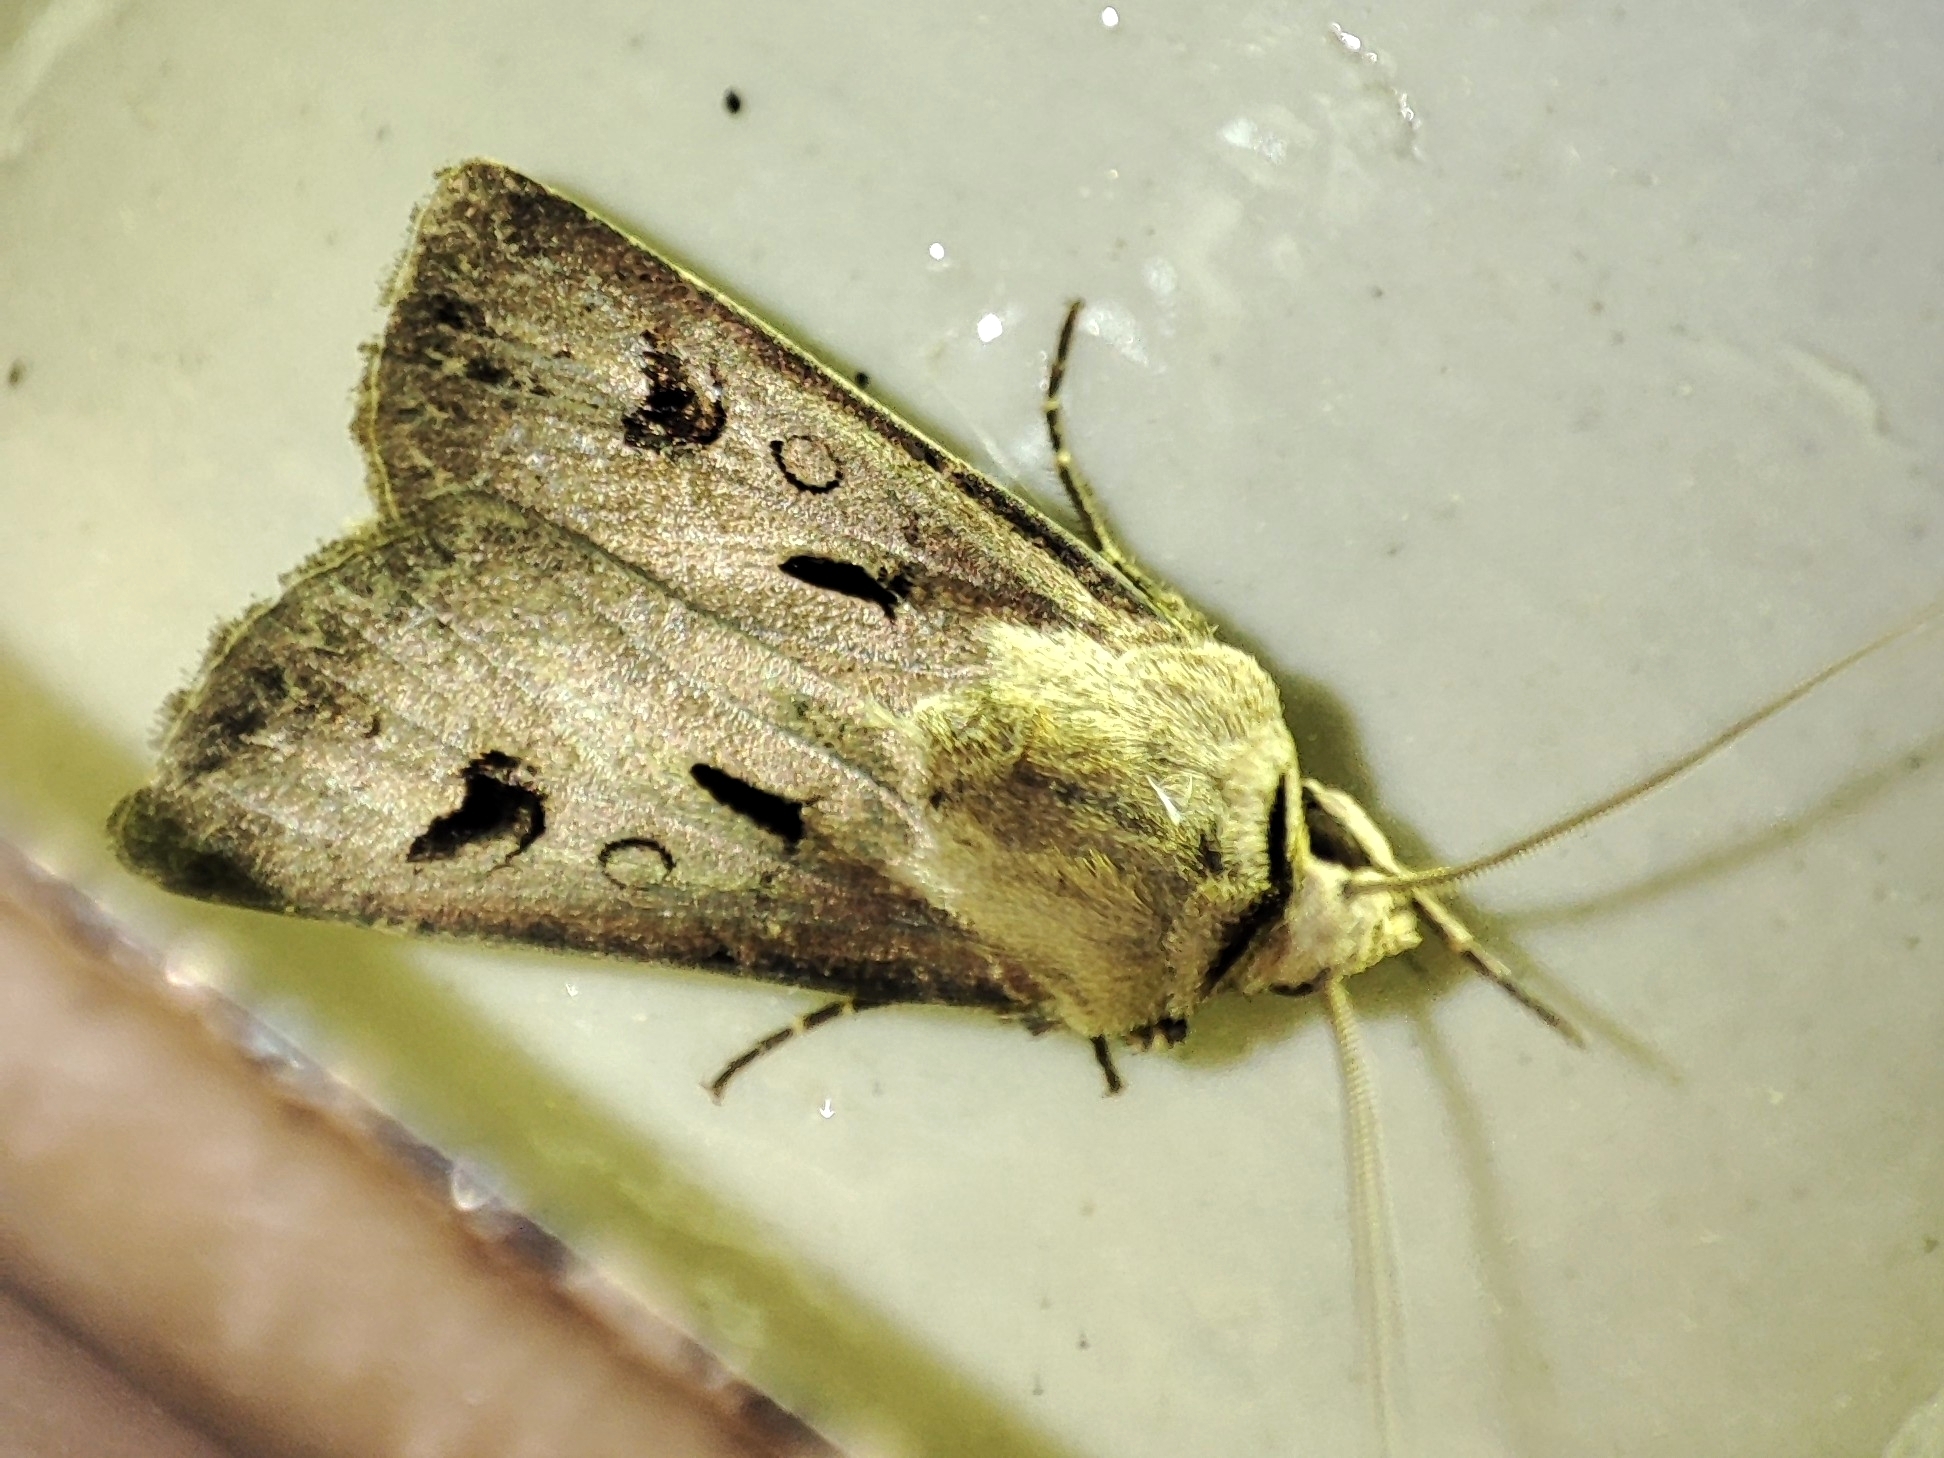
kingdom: Animalia
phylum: Arthropoda
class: Insecta
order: Lepidoptera
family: Noctuidae
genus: Agrotis
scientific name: Agrotis exclamationis
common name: Heart and dart
